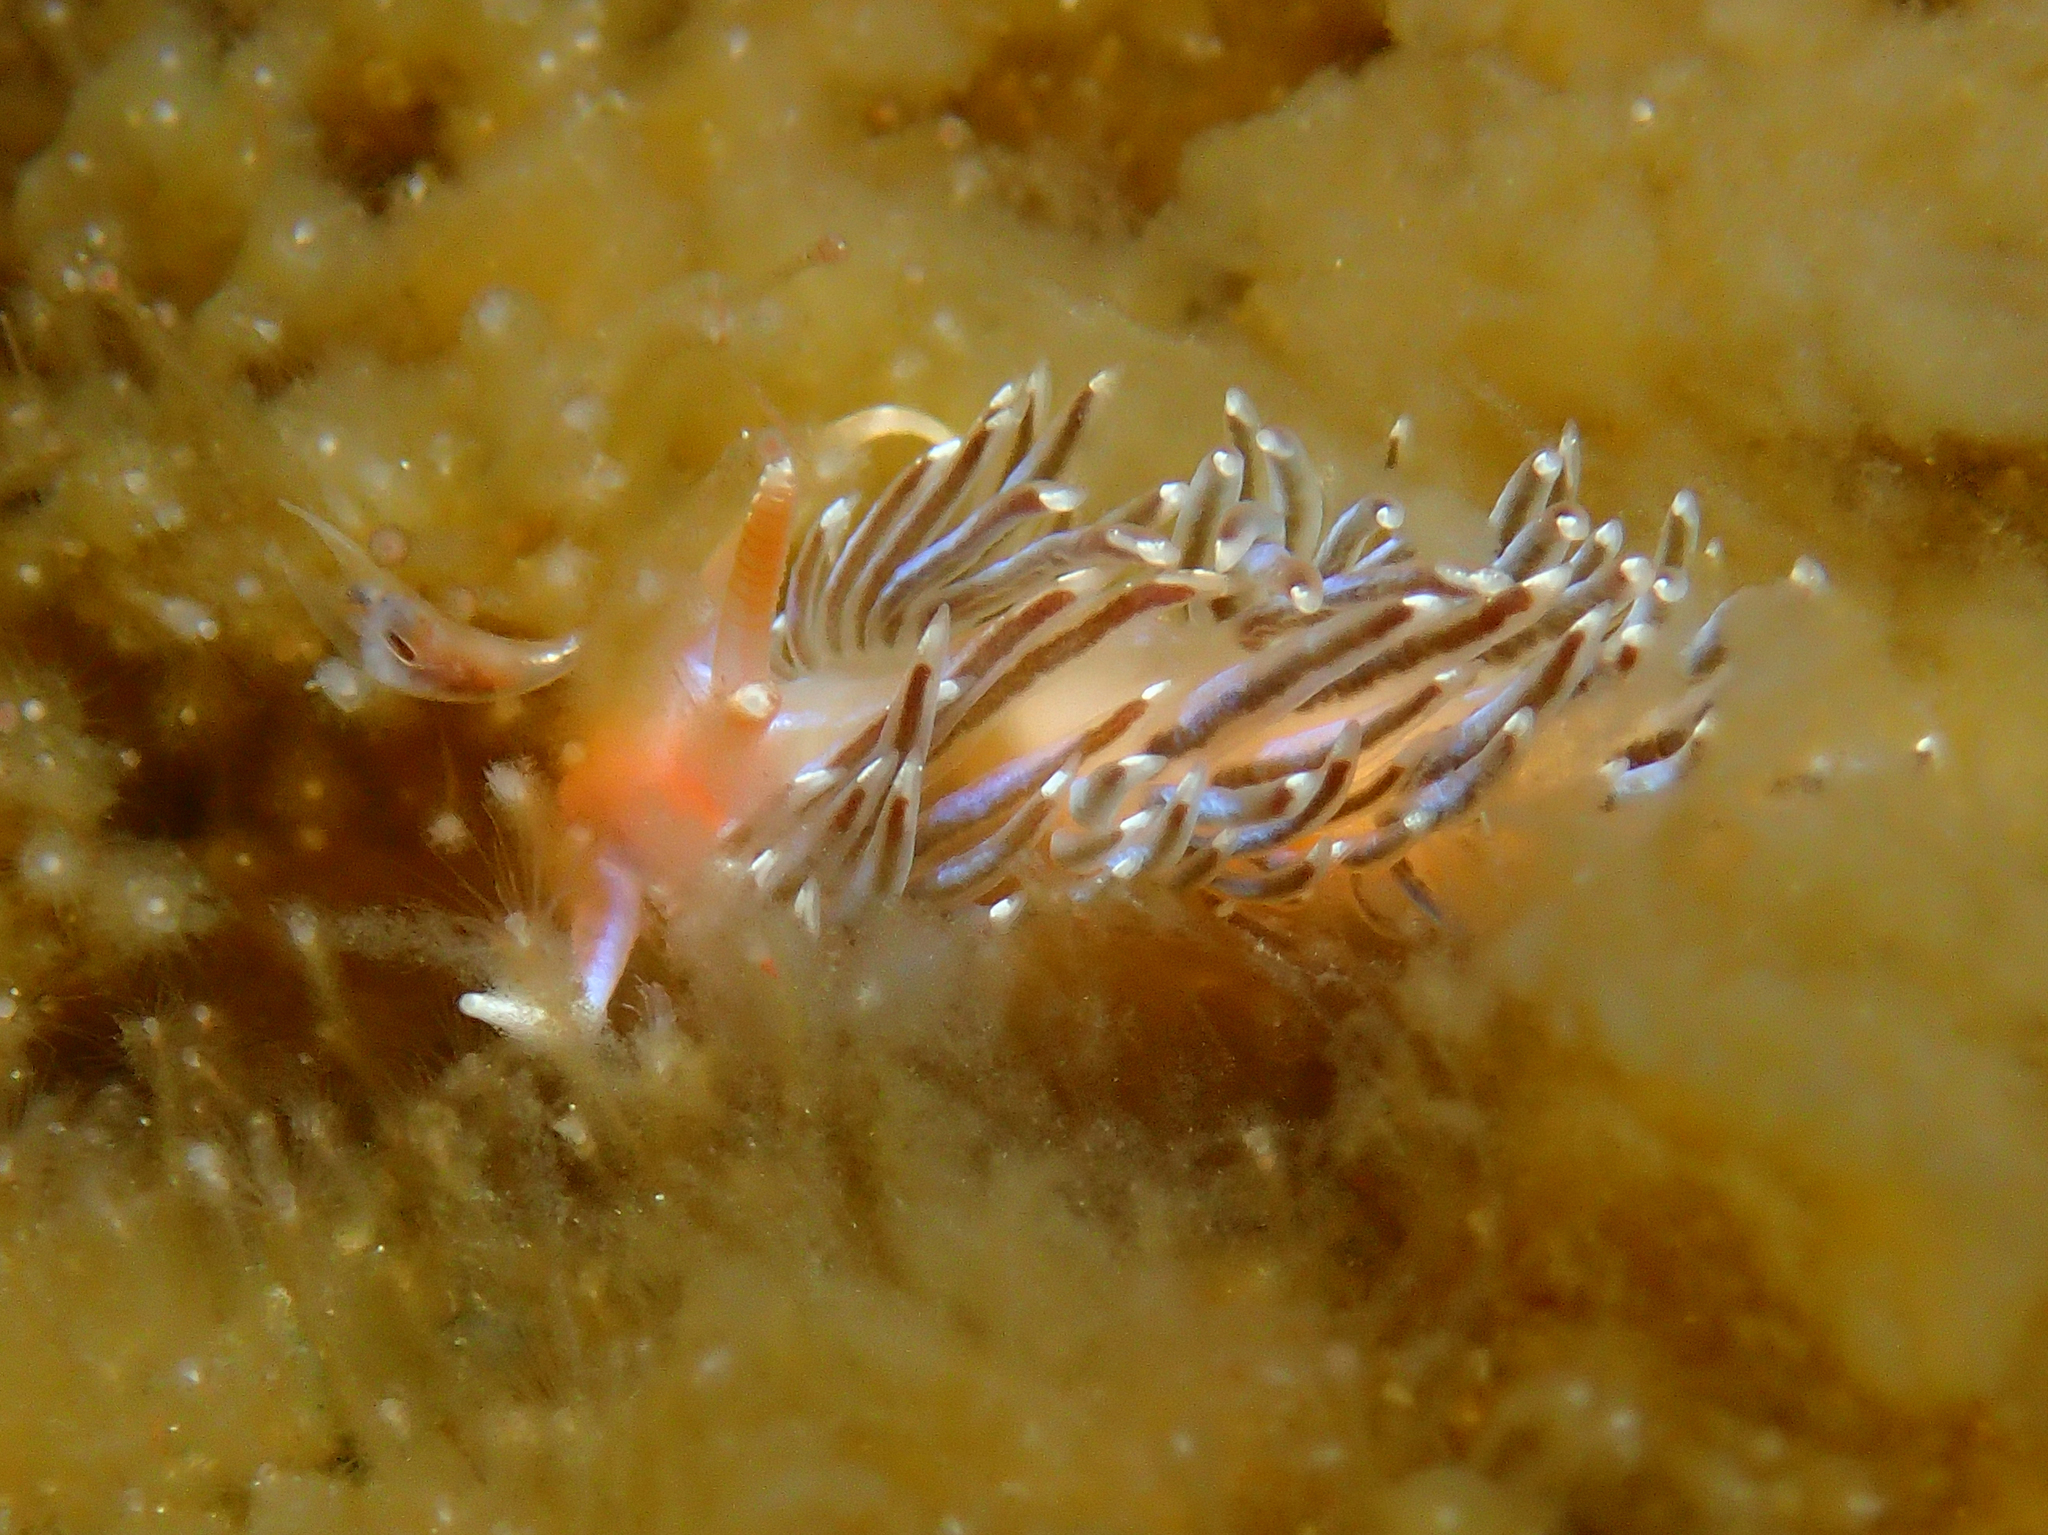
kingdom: Animalia
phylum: Mollusca
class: Gastropoda
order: Nudibranchia
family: Facelinidae
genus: Facelina
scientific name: Facelina vicina
